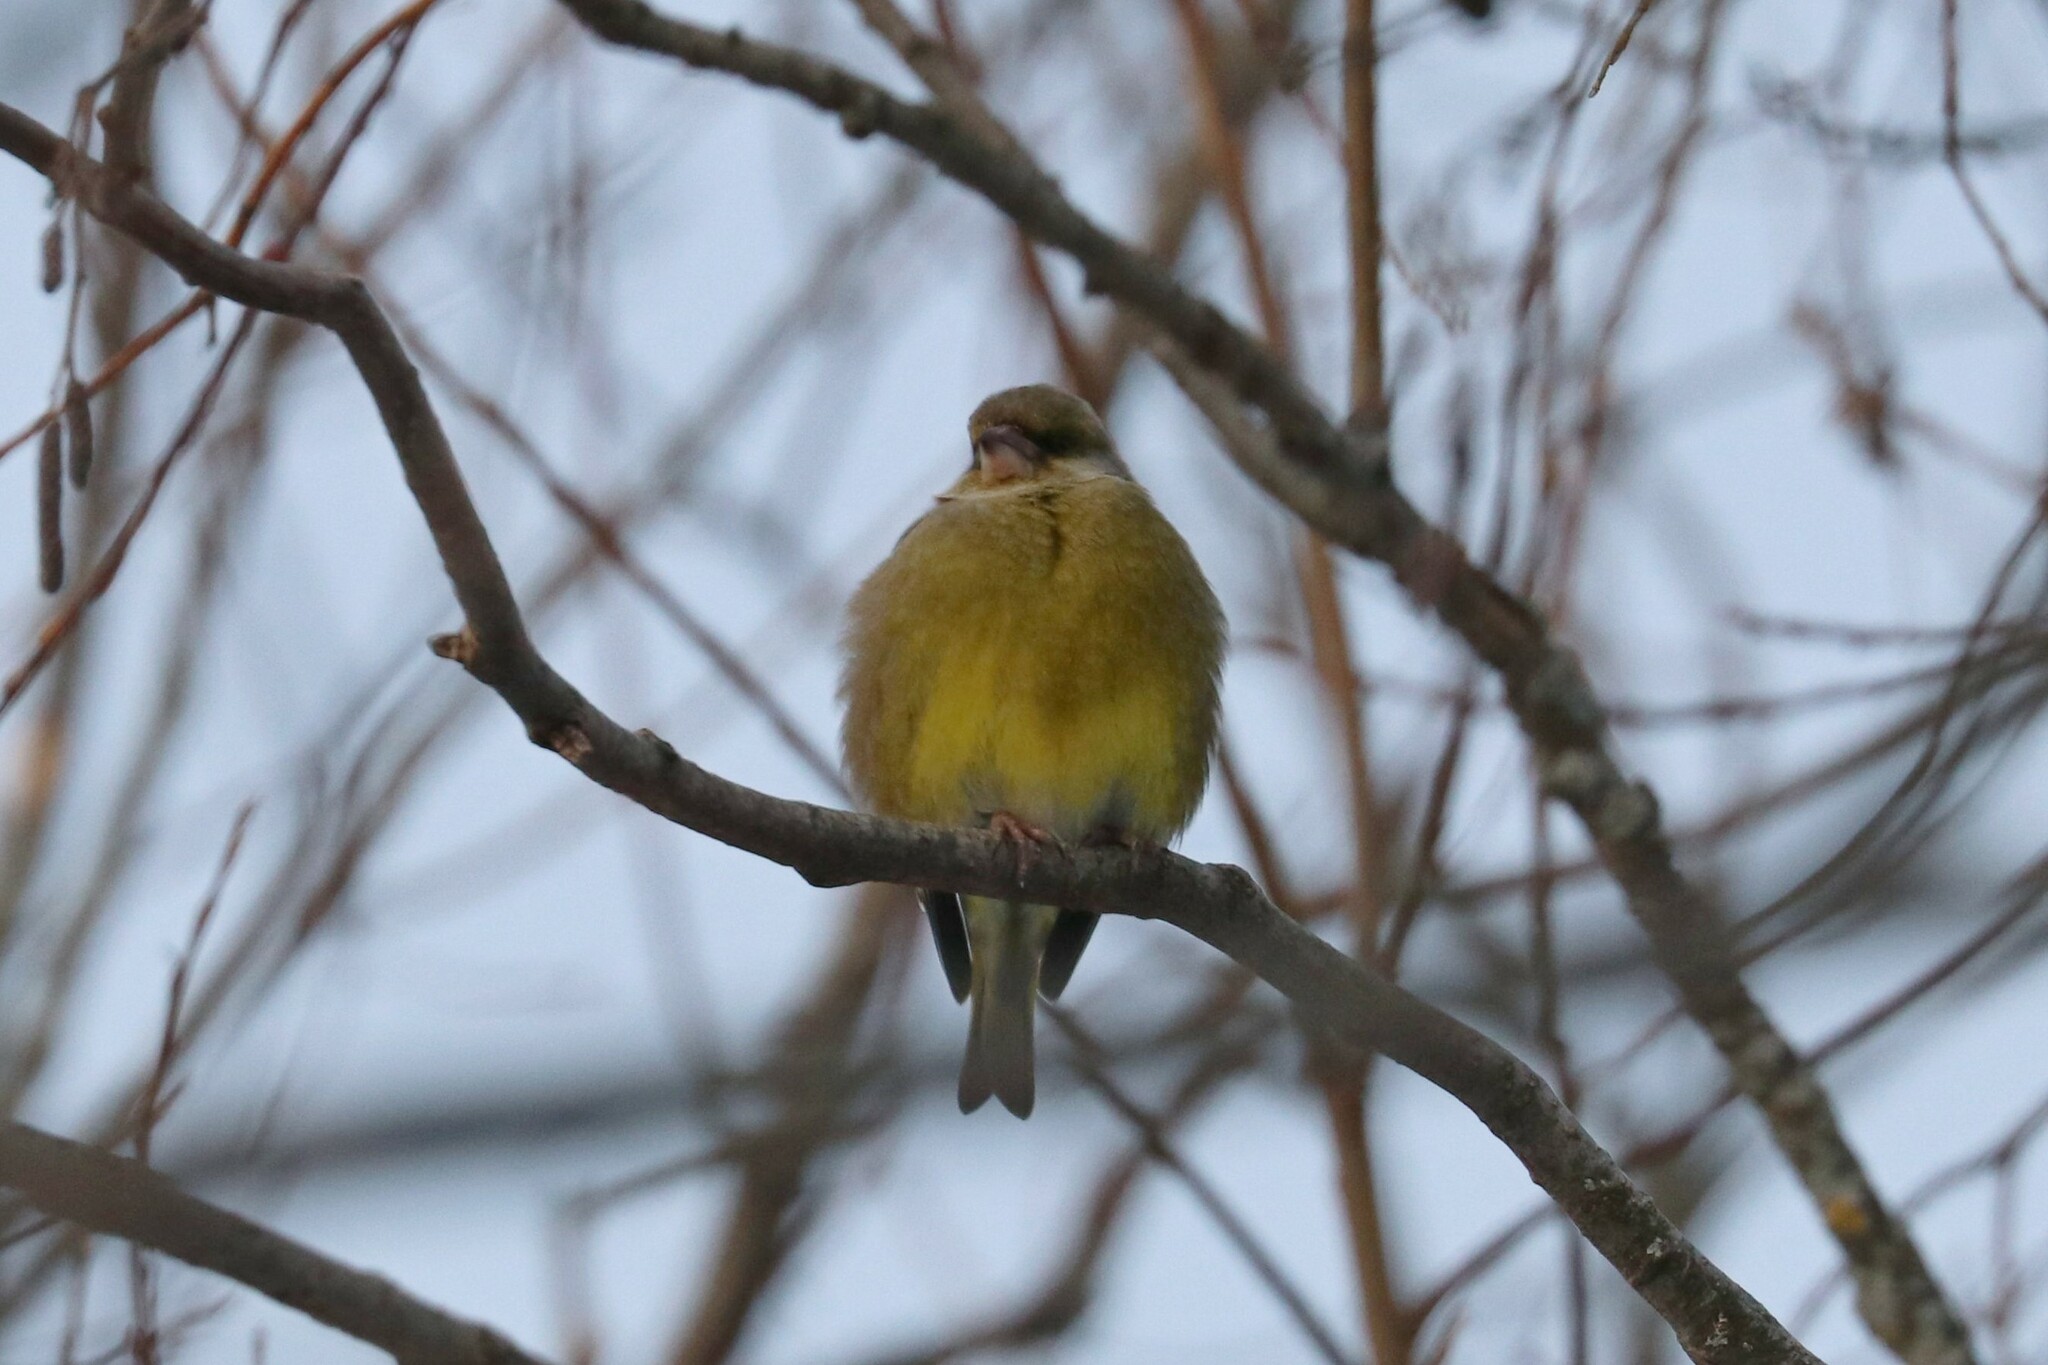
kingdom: Plantae
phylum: Tracheophyta
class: Liliopsida
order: Poales
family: Poaceae
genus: Chloris
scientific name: Chloris chloris
